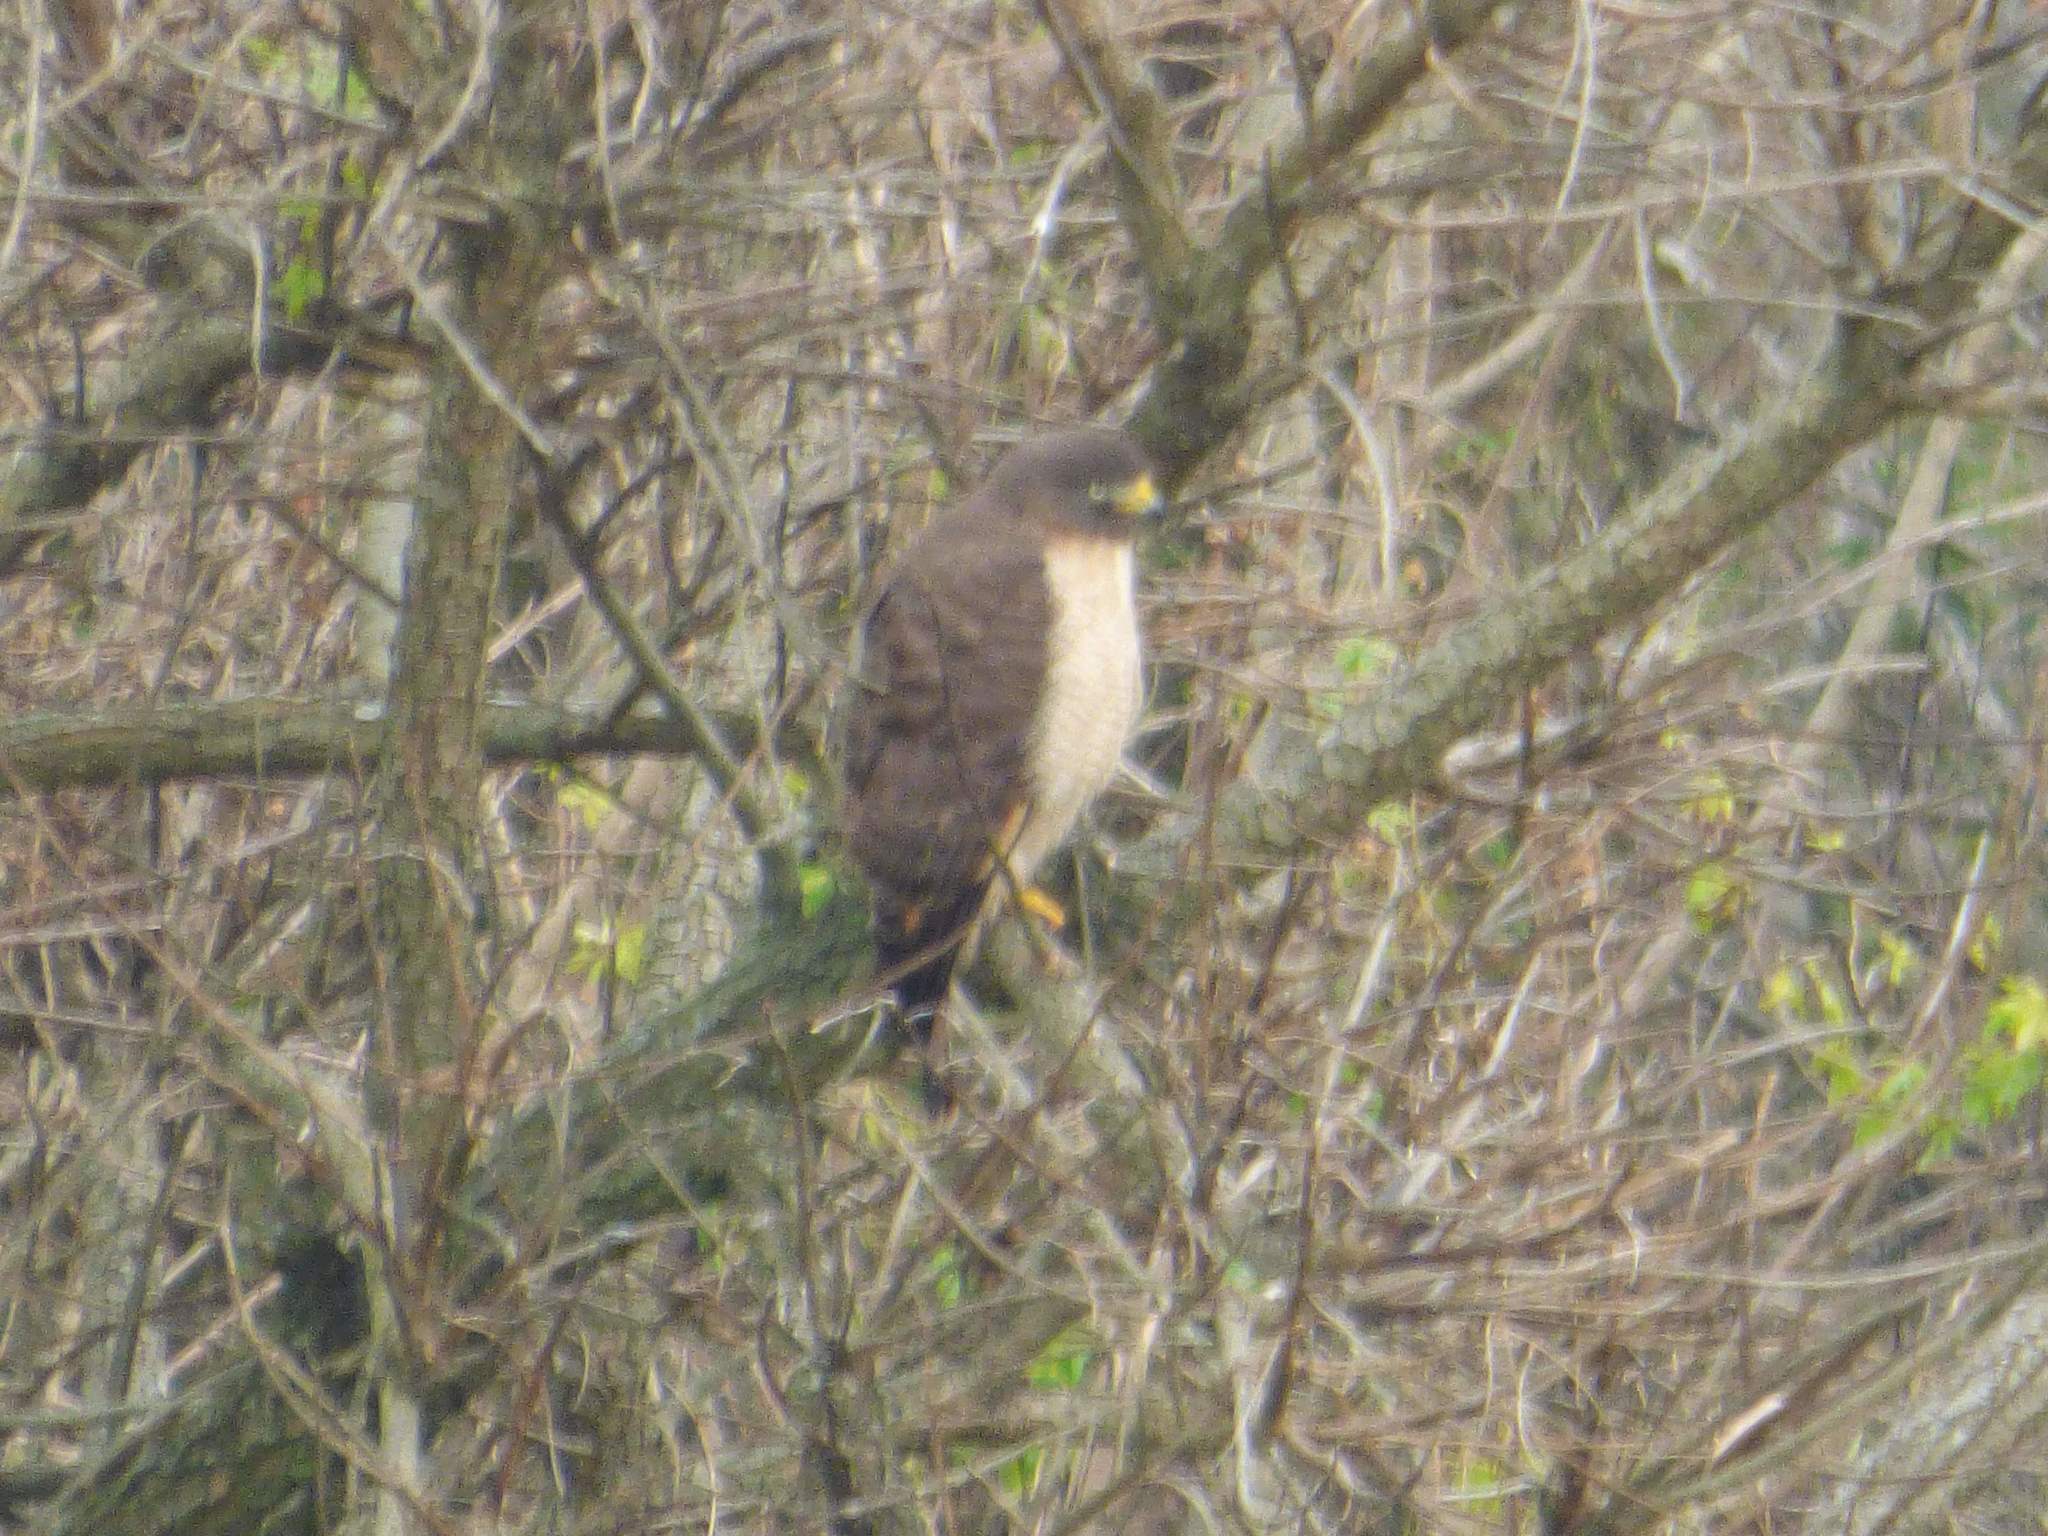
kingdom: Animalia
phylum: Chordata
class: Aves
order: Accipitriformes
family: Accipitridae
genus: Rupornis
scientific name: Rupornis magnirostris
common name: Roadside hawk
